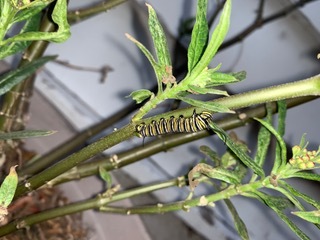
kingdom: Animalia
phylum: Arthropoda
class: Insecta
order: Lepidoptera
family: Nymphalidae
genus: Danaus
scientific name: Danaus plexippus
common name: Monarch
